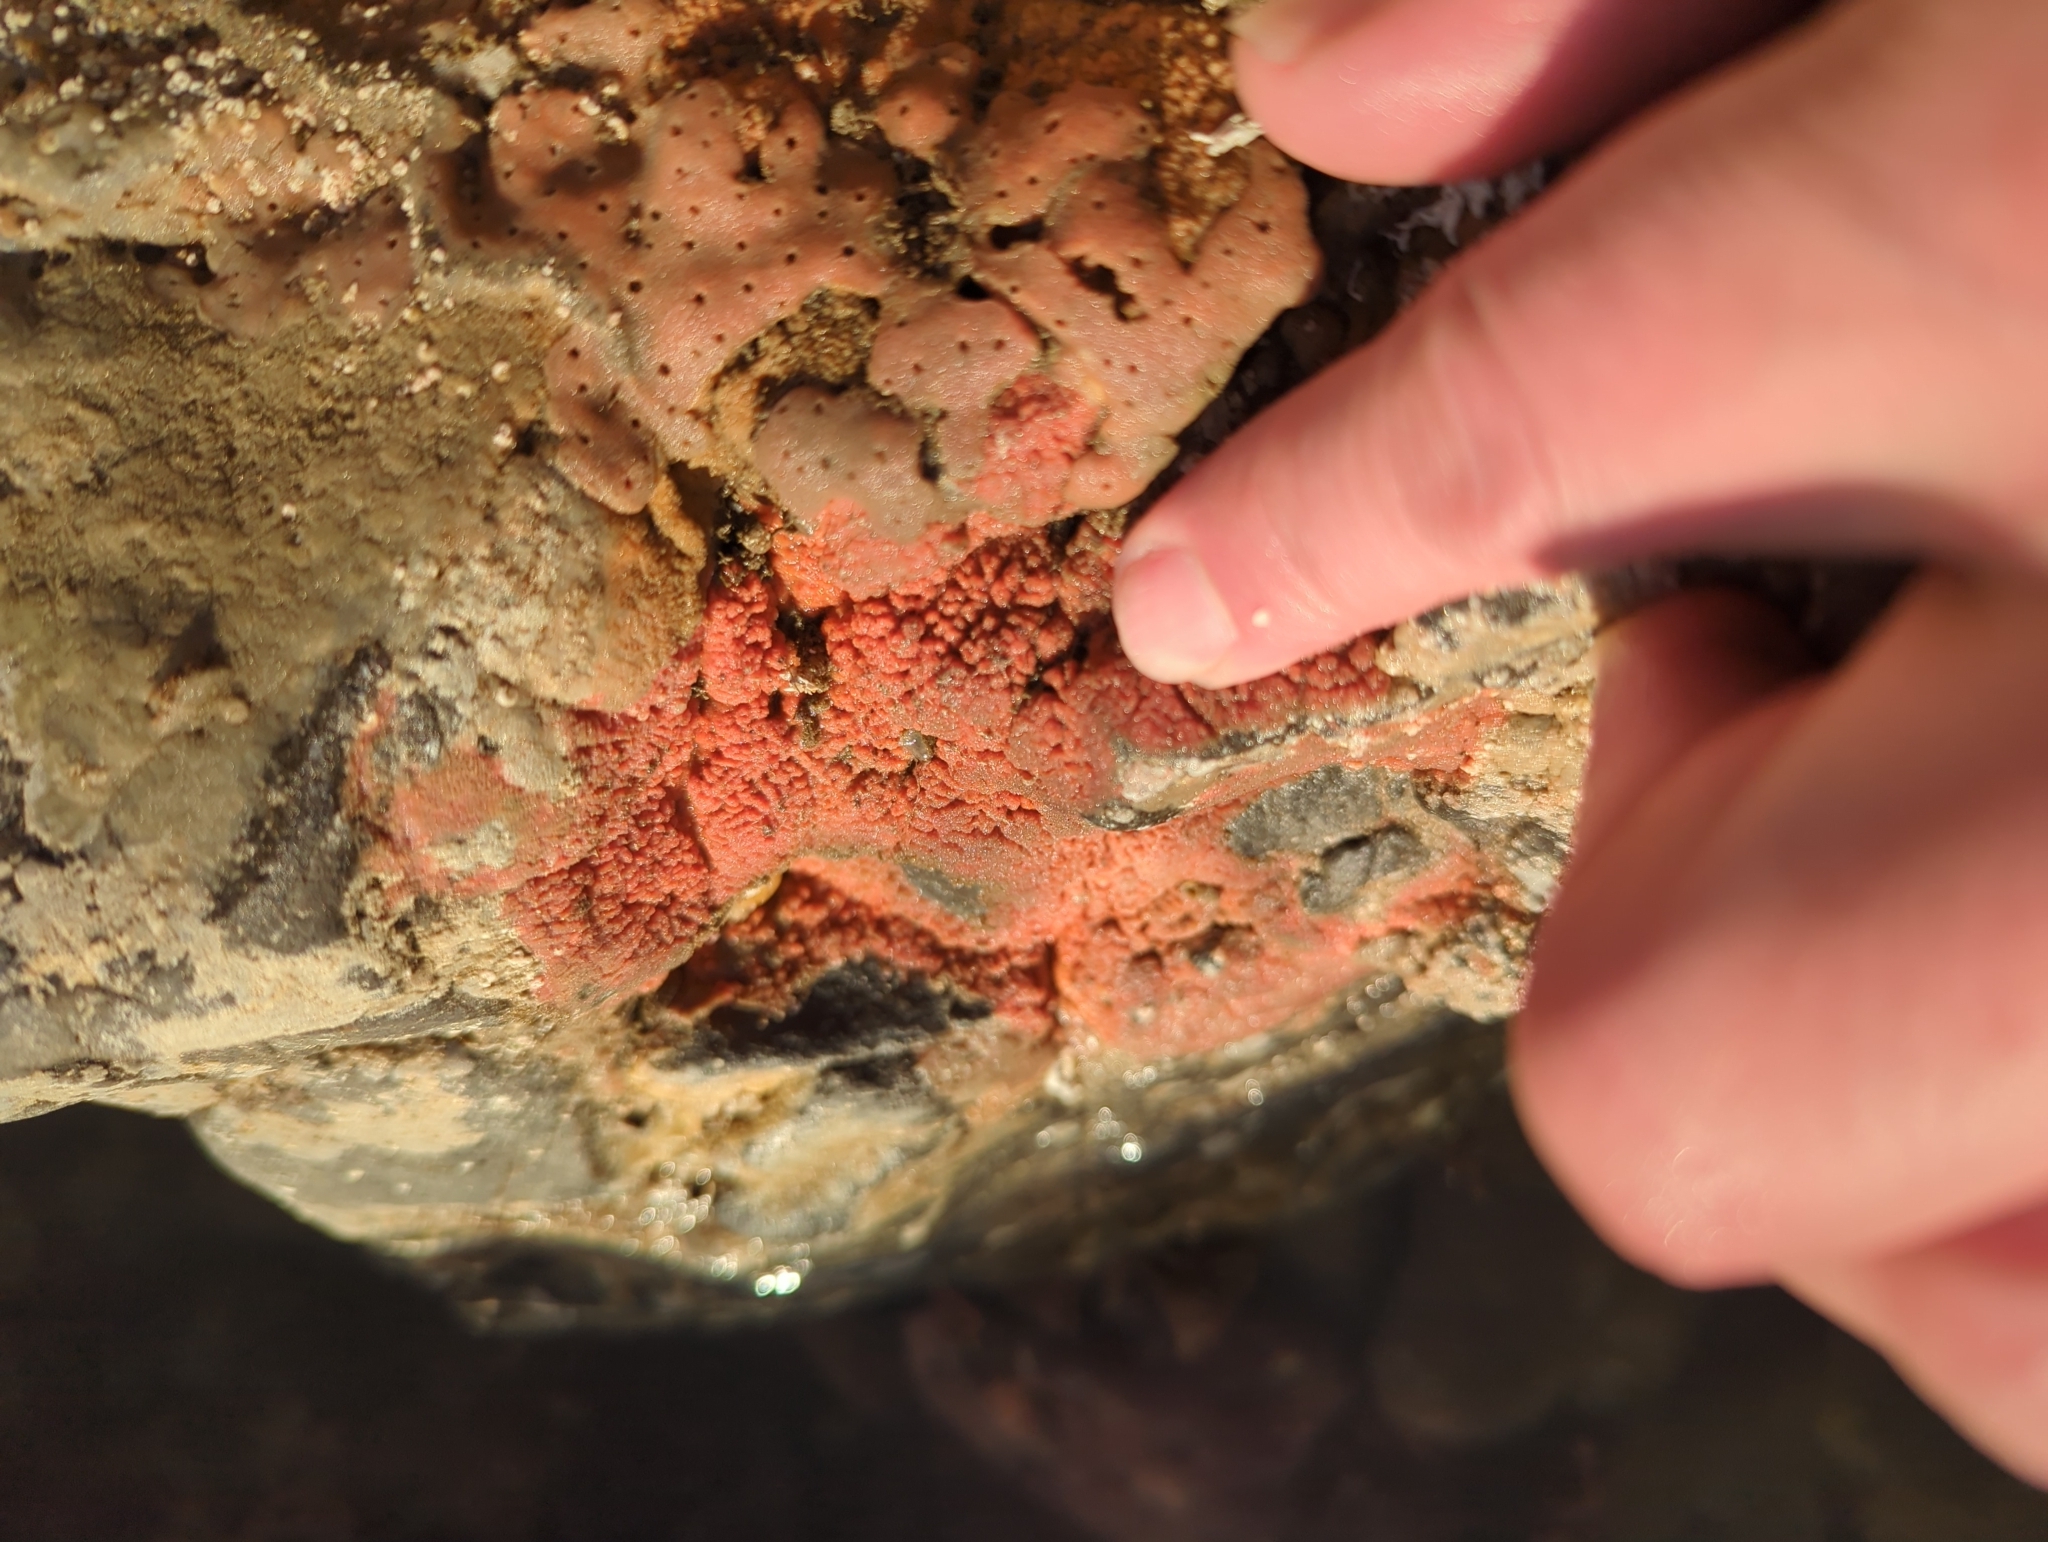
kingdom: Animalia
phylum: Porifera
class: Demospongiae
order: Axinellida
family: Raspailiidae
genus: Endectyon
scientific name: Endectyon hispitumulus
